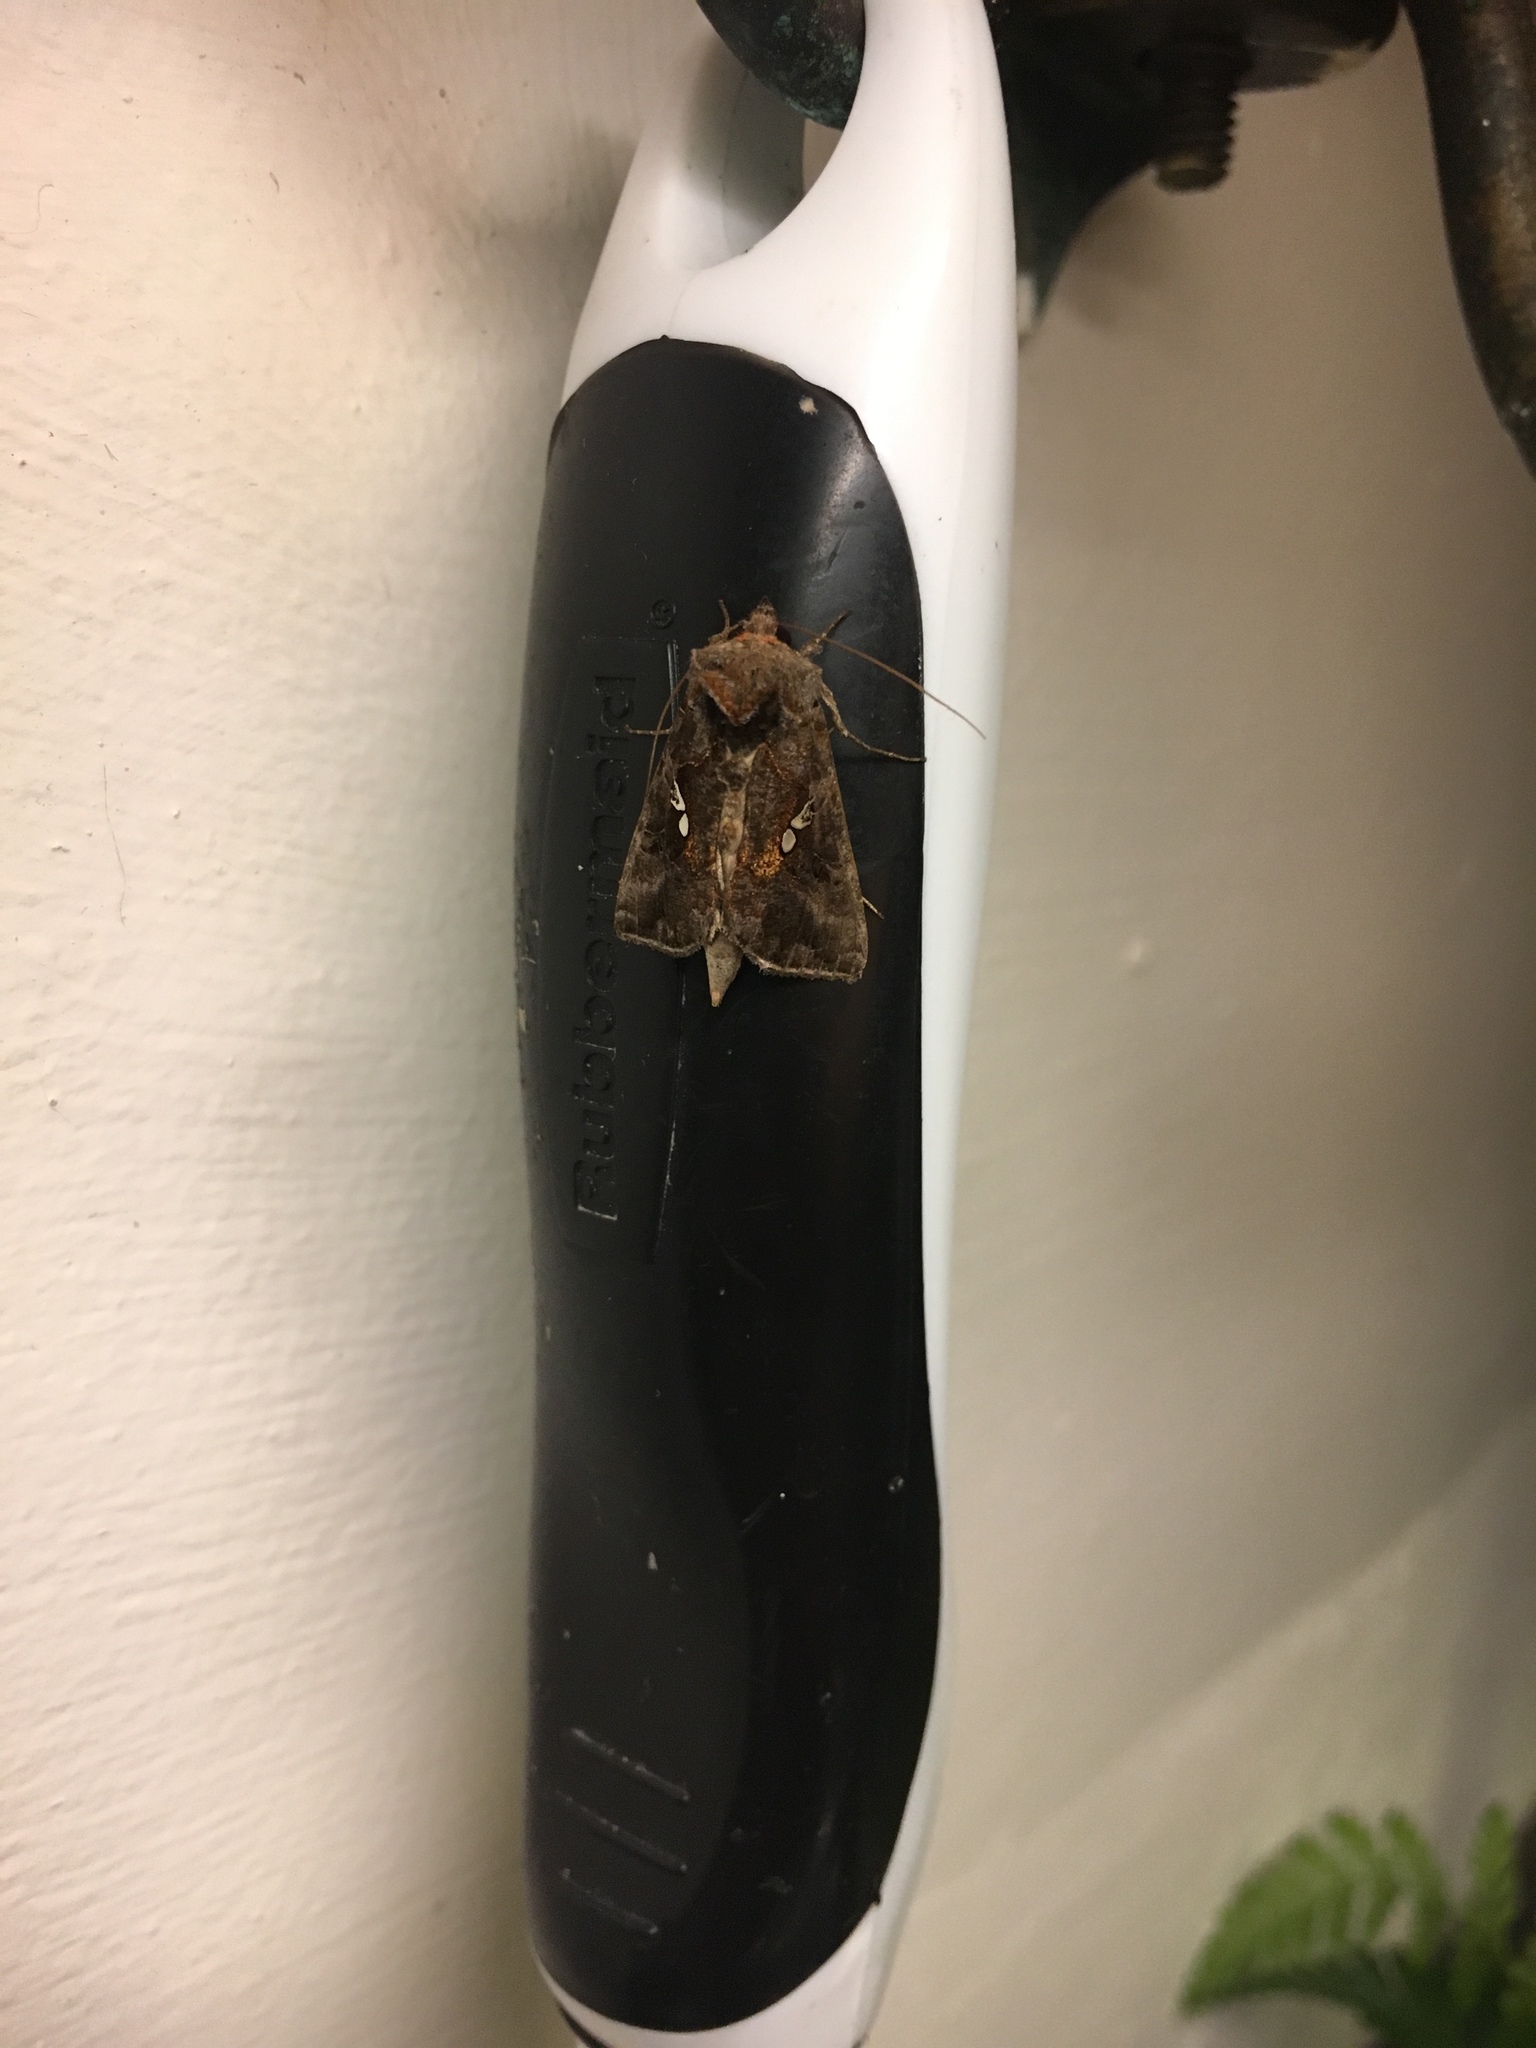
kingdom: Animalia
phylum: Arthropoda
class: Insecta
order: Lepidoptera
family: Noctuidae
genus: Autographa
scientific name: Autographa precationis
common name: Common looper moth
